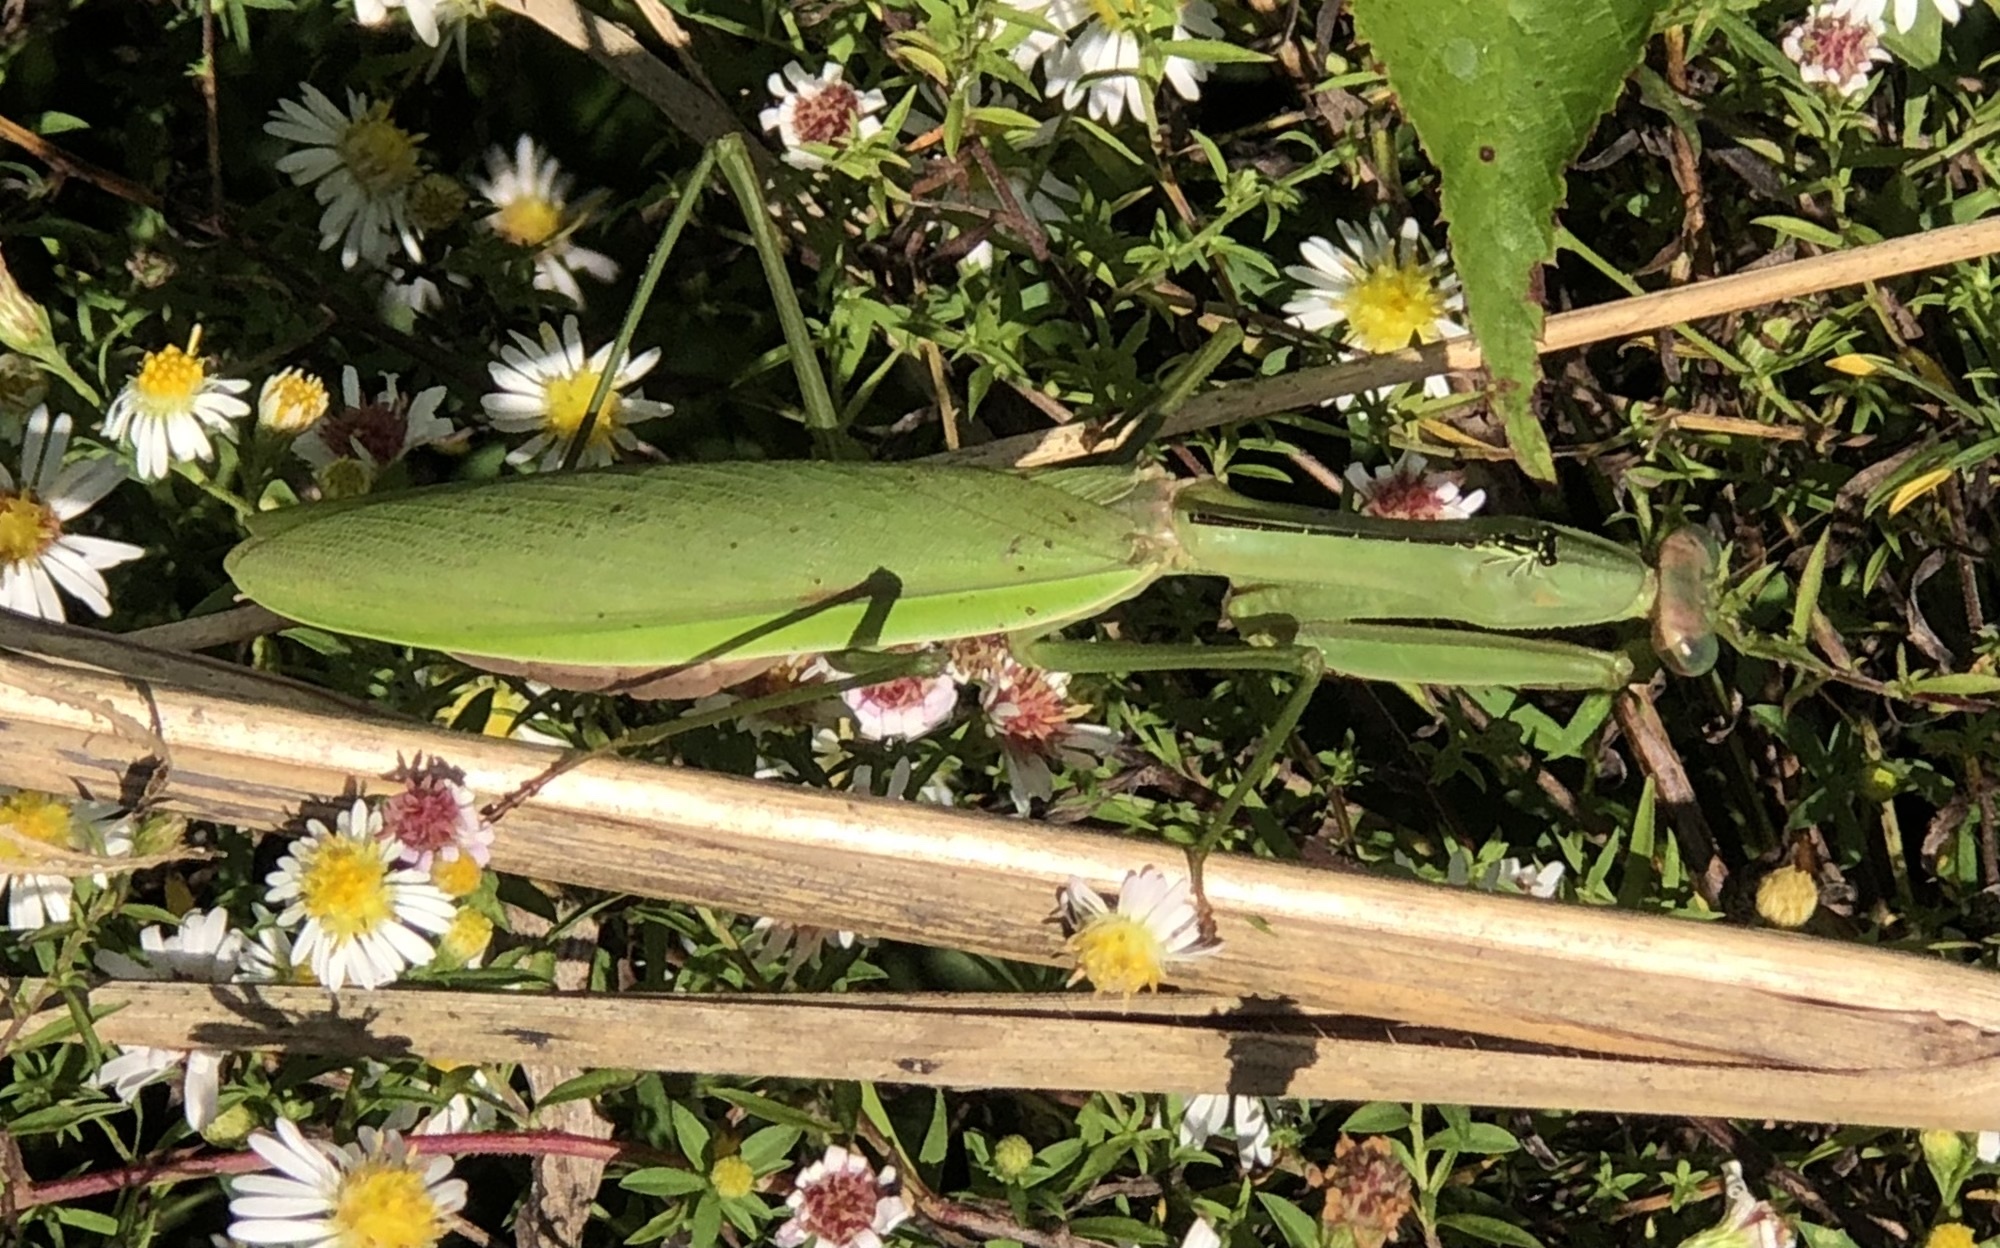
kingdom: Animalia
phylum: Arthropoda
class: Insecta
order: Odonata
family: Coenagrionidae
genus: Ischnura
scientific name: Ischnura posita
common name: Fragile forktail
